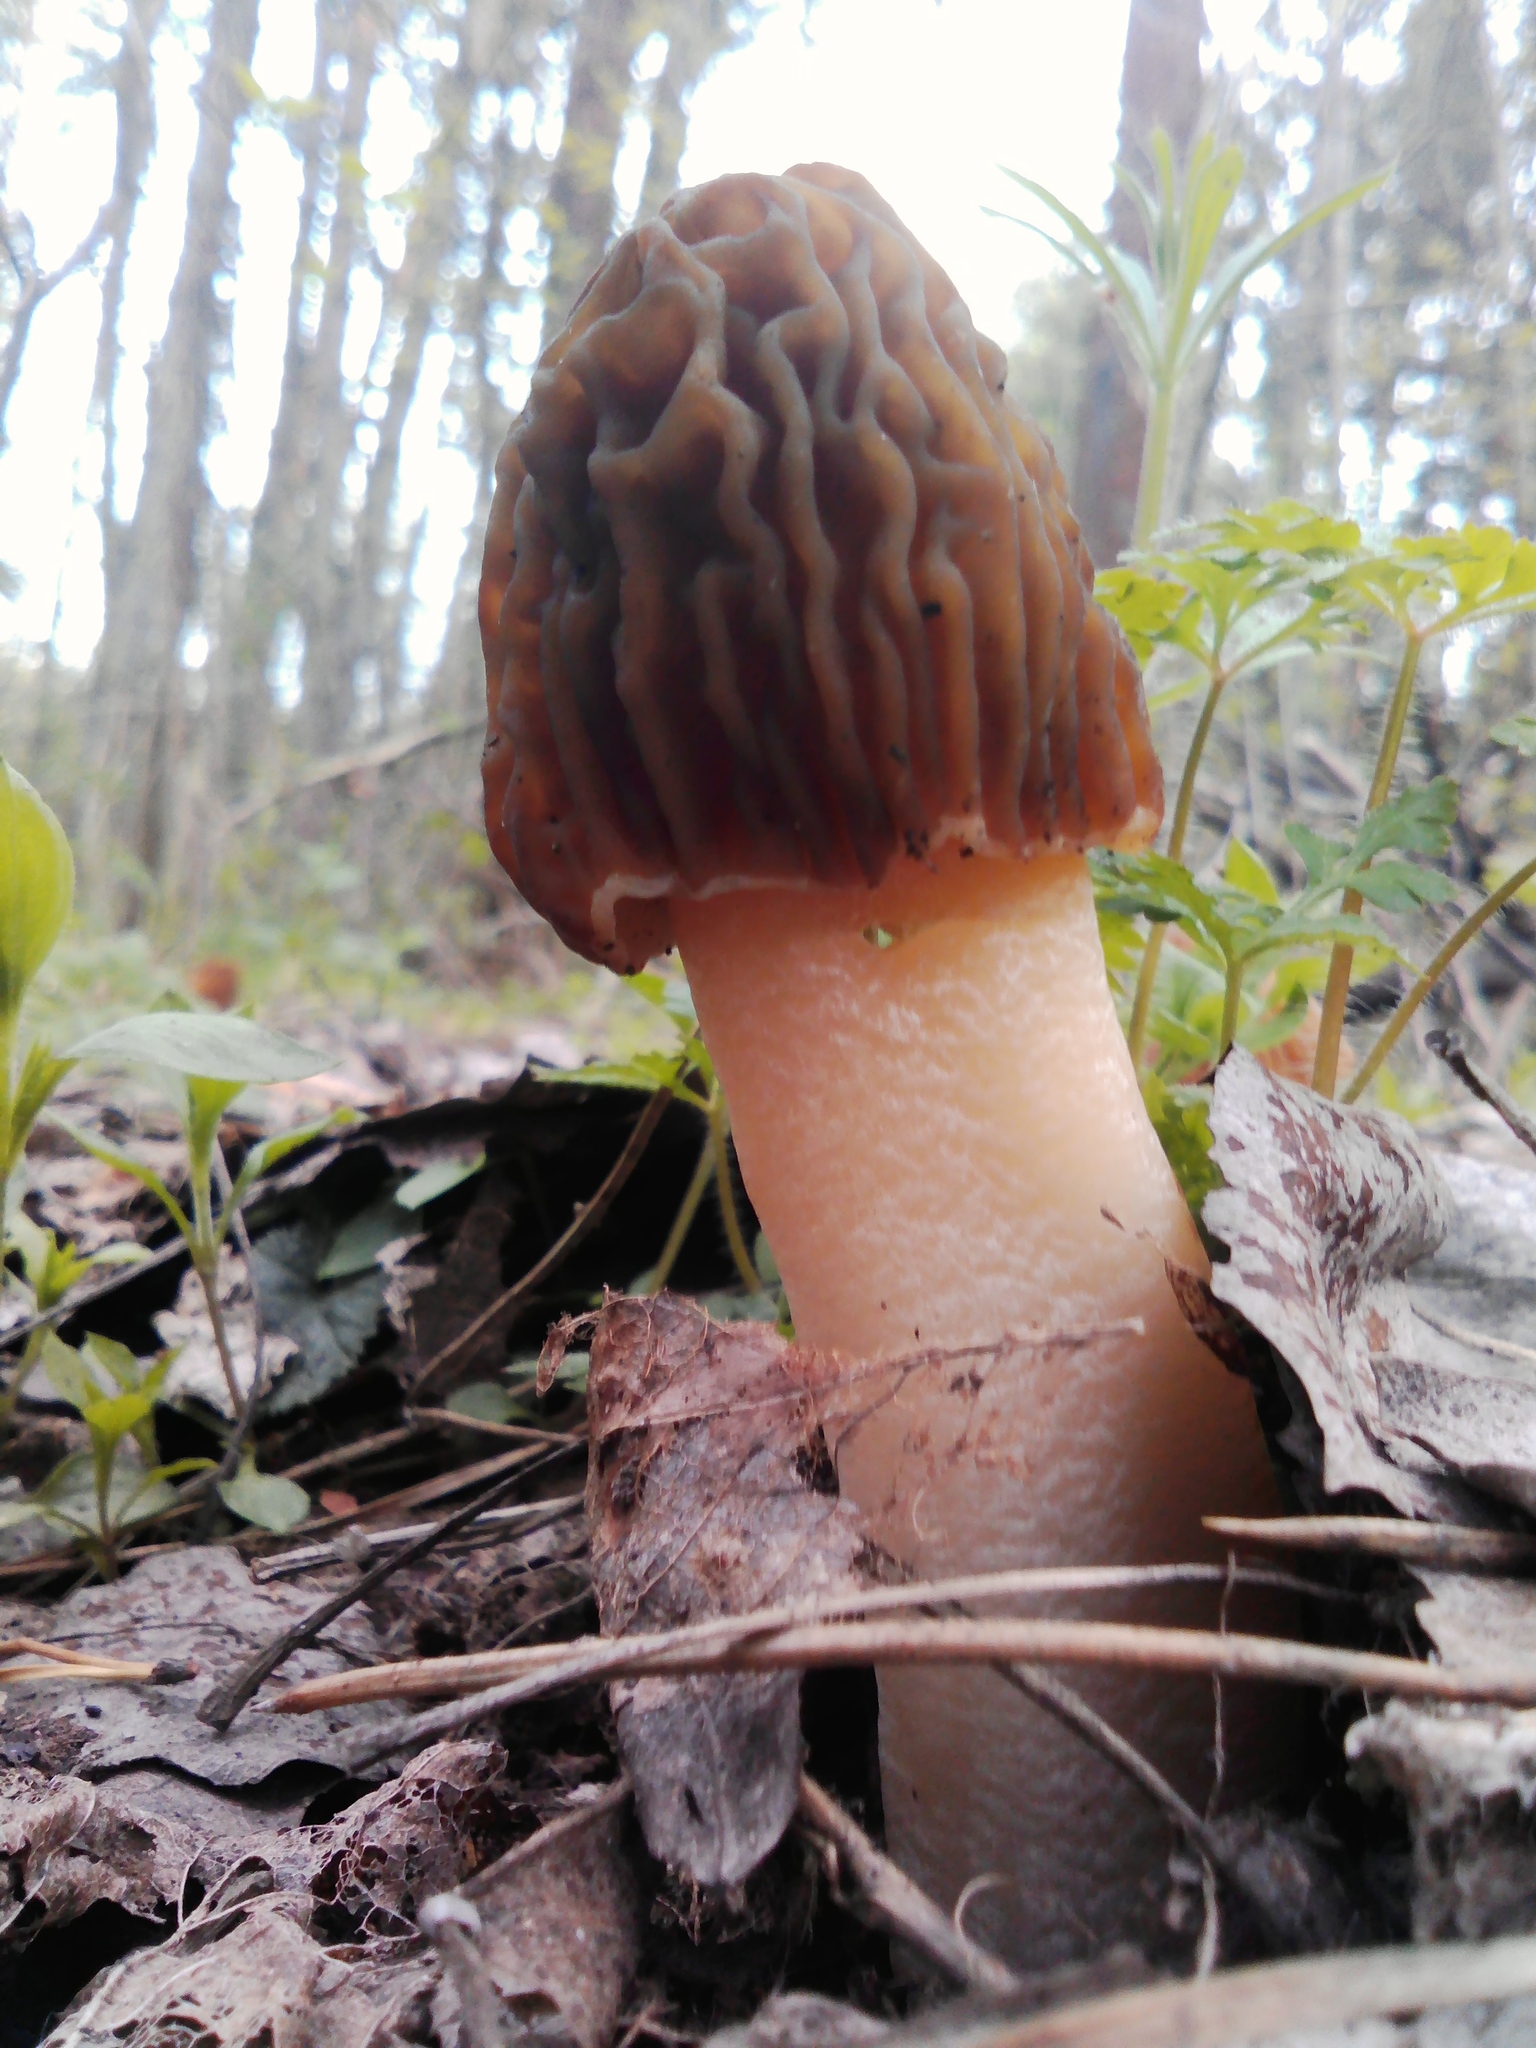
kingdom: Fungi
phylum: Ascomycota
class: Pezizomycetes
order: Pezizales
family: Morchellaceae
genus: Verpa
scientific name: Verpa bohemica
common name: Wrinkled thimble morel
